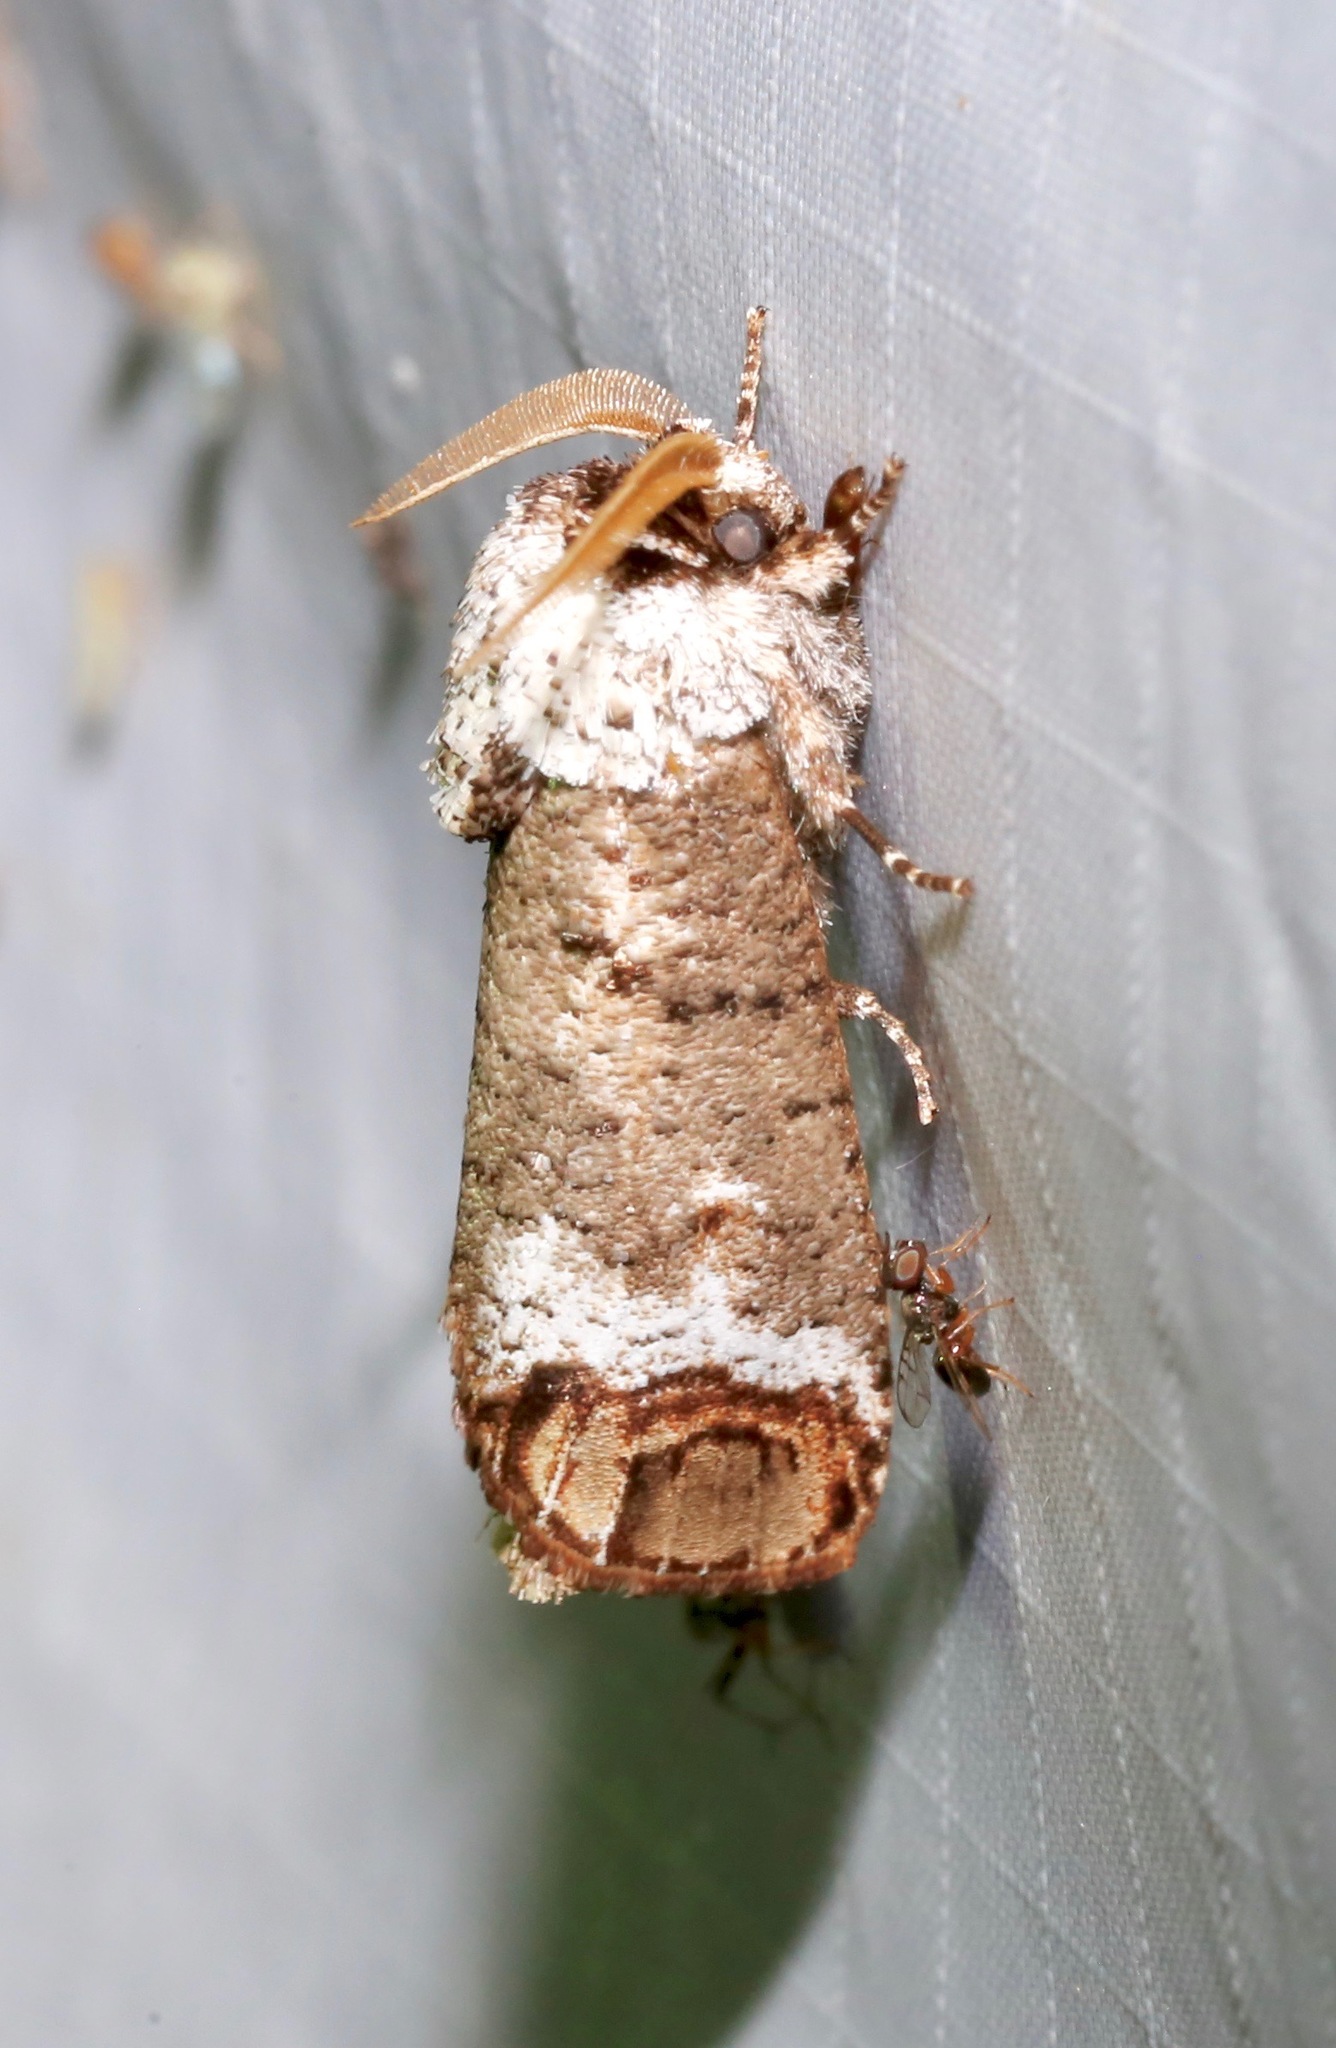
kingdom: Animalia
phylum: Arthropoda
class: Insecta
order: Lepidoptera
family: Cossidae
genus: Cossula
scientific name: Cossula magnifica
